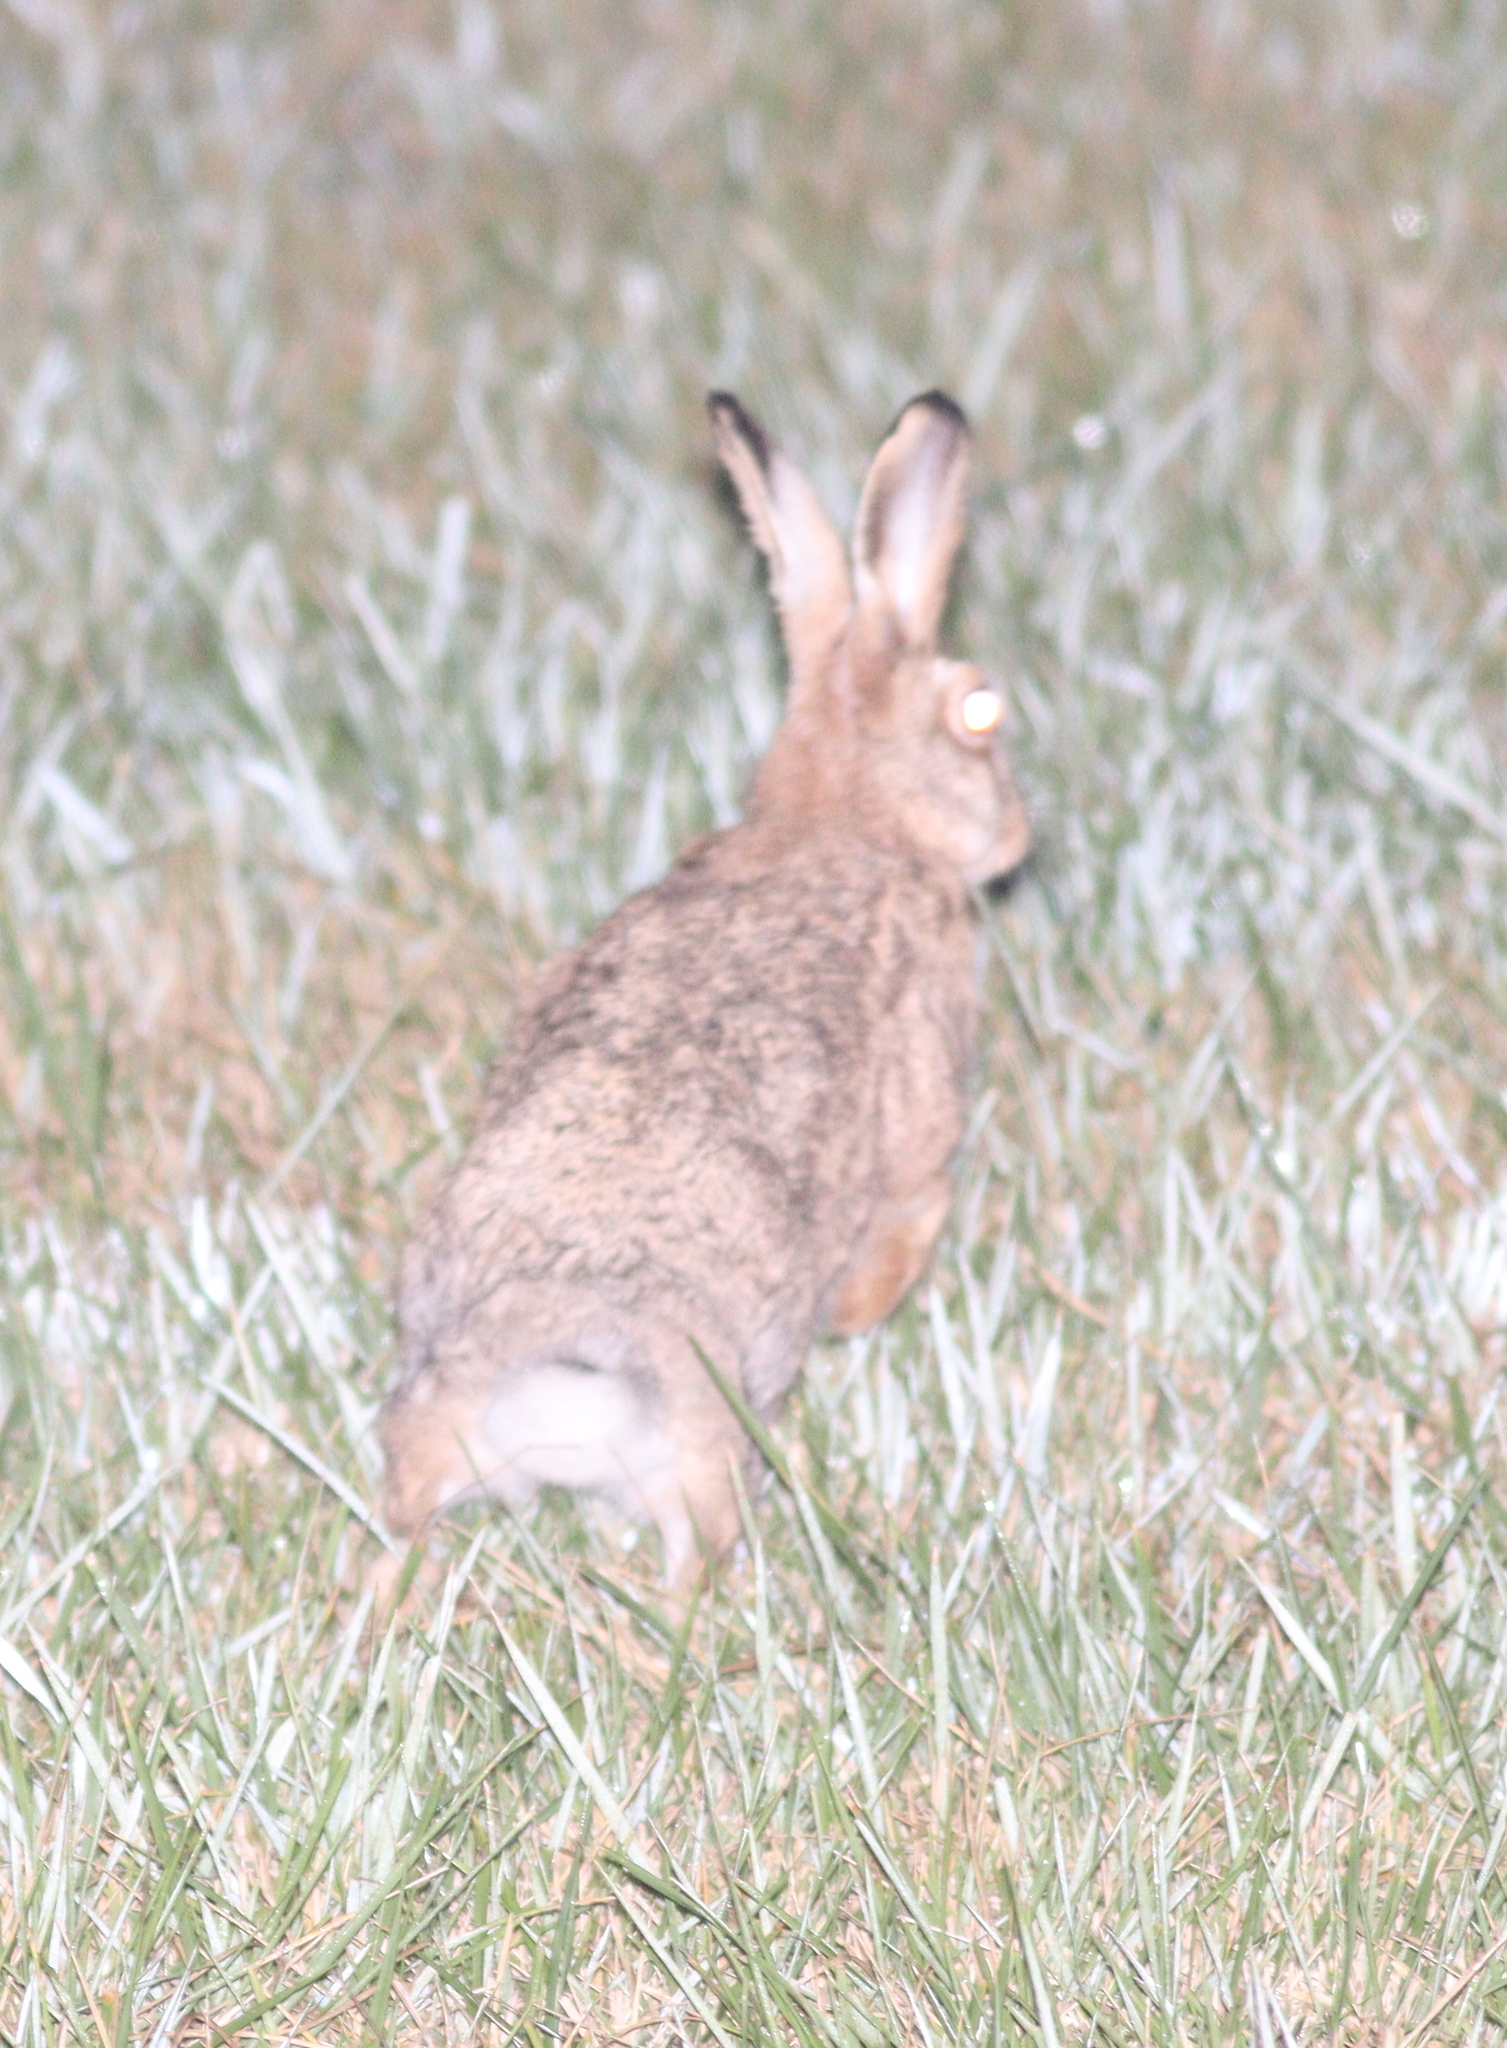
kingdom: Animalia
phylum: Chordata
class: Mammalia
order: Lagomorpha
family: Leporidae
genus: Lepus
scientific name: Lepus europaeus
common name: European hare
